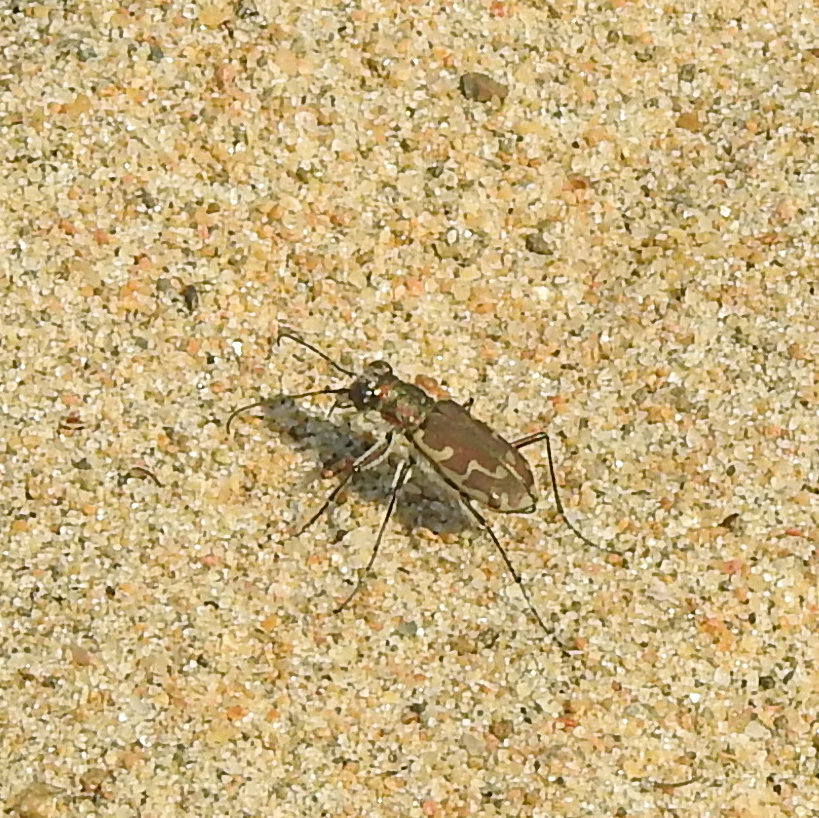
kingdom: Animalia
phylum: Arthropoda
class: Insecta
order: Coleoptera
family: Carabidae
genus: Cicindela
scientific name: Cicindela repanda
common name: Bronzed tiger beetle
